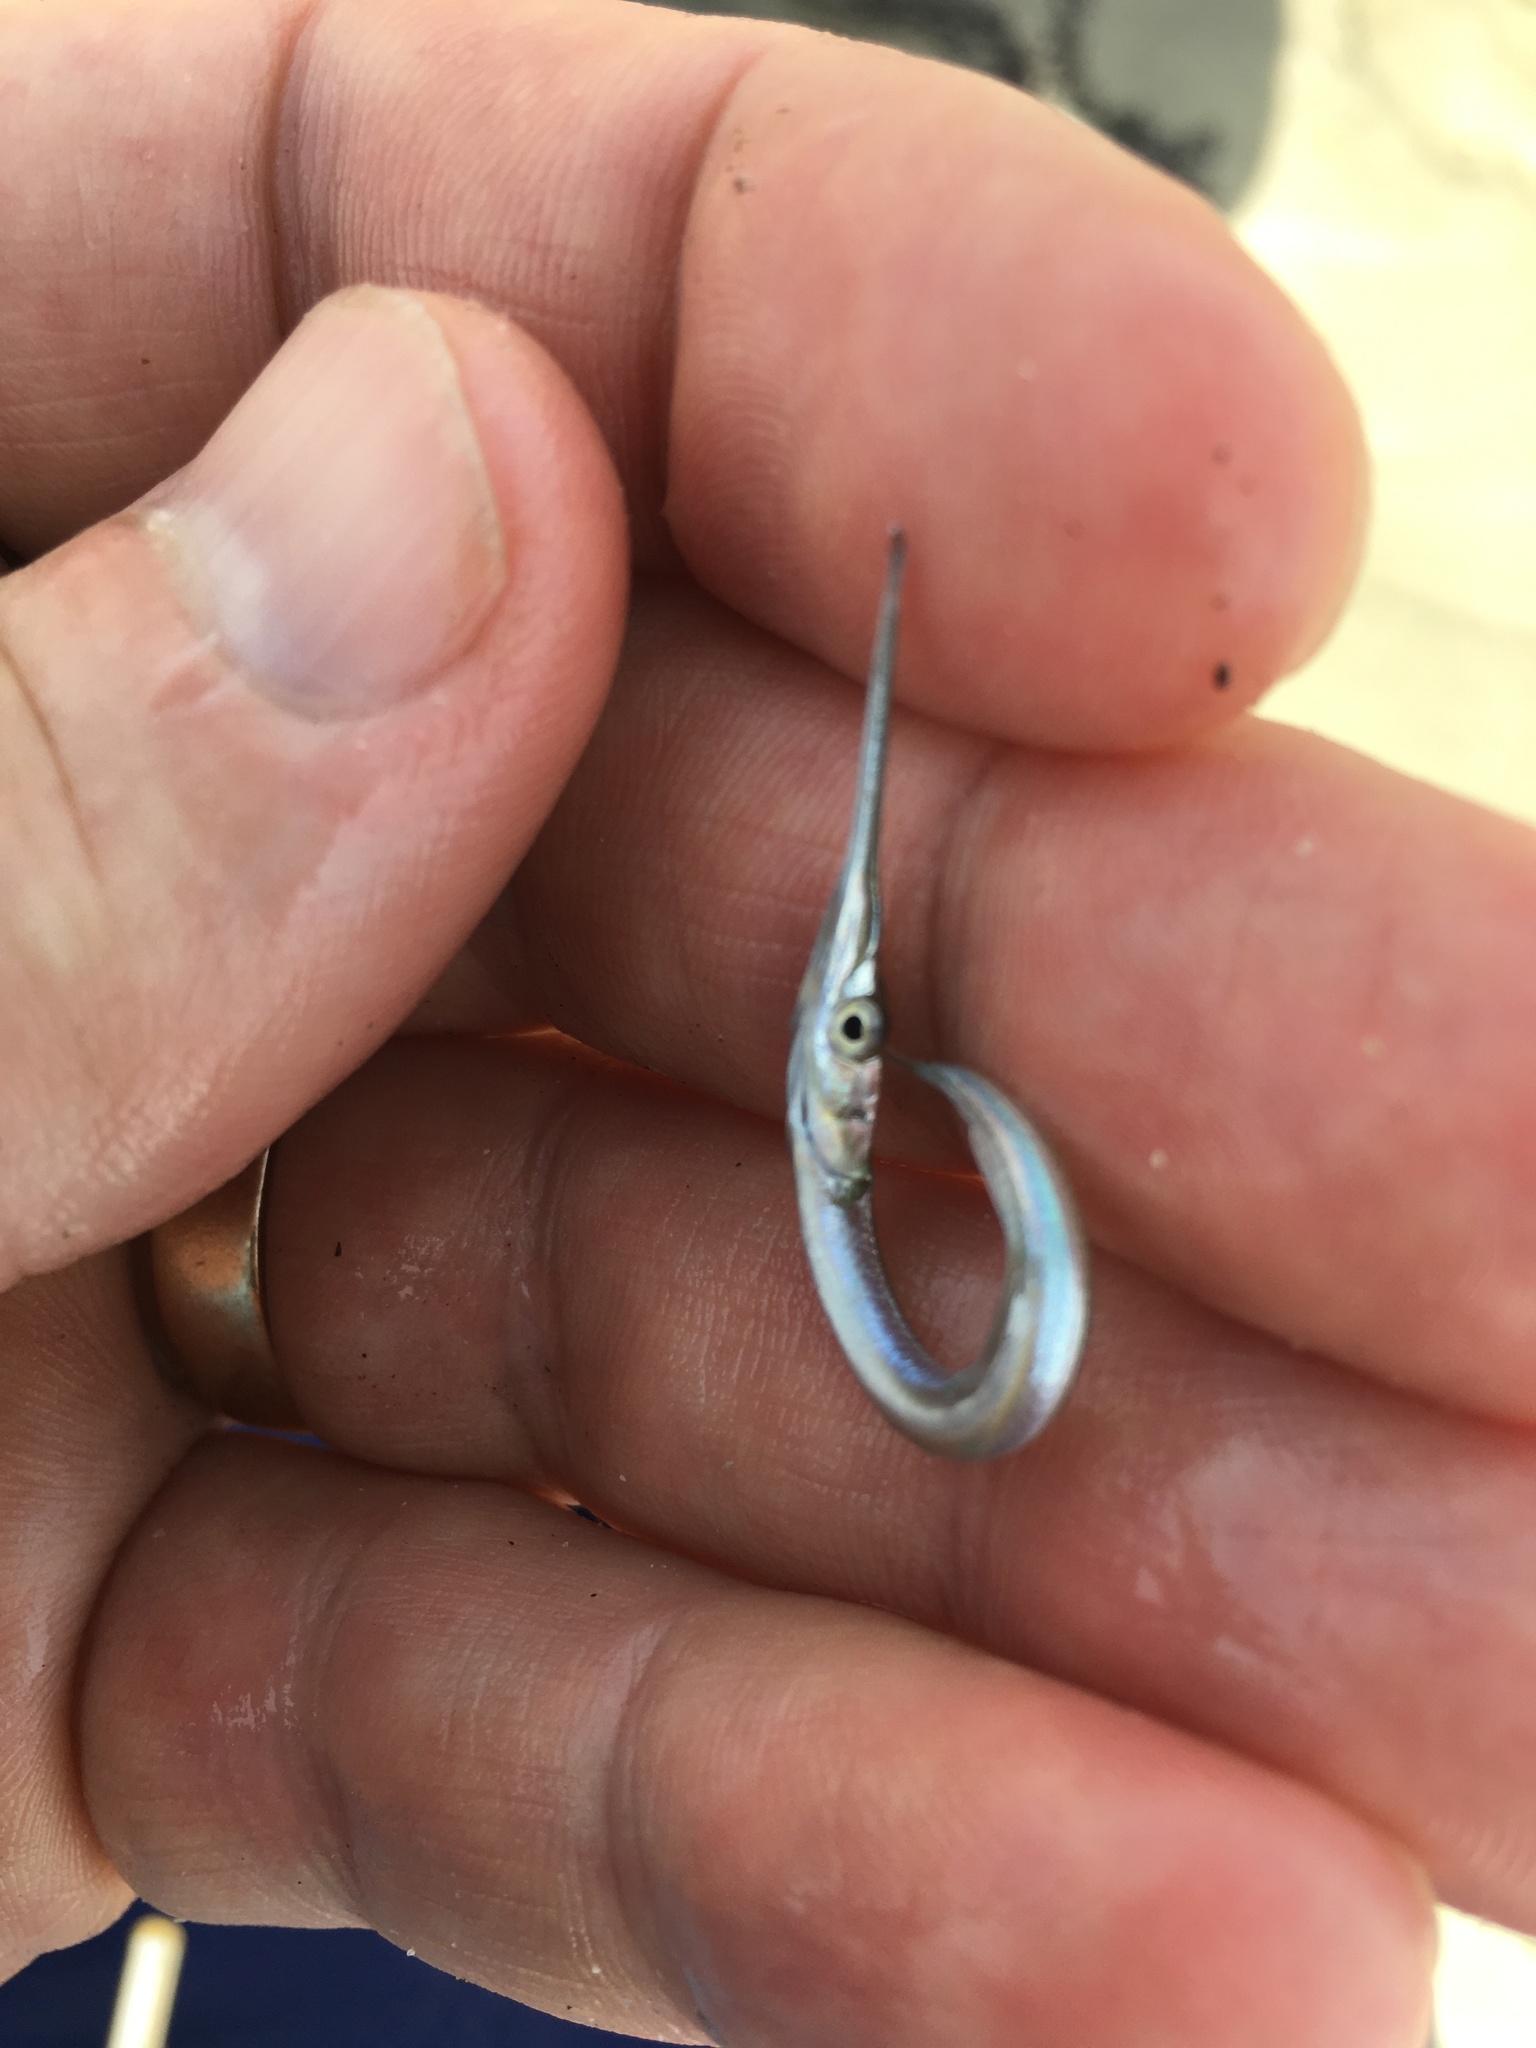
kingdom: Animalia
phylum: Chordata
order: Beloniformes
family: Belonidae
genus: Strongylura
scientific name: Strongylura marina
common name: Atlantic needlefish
